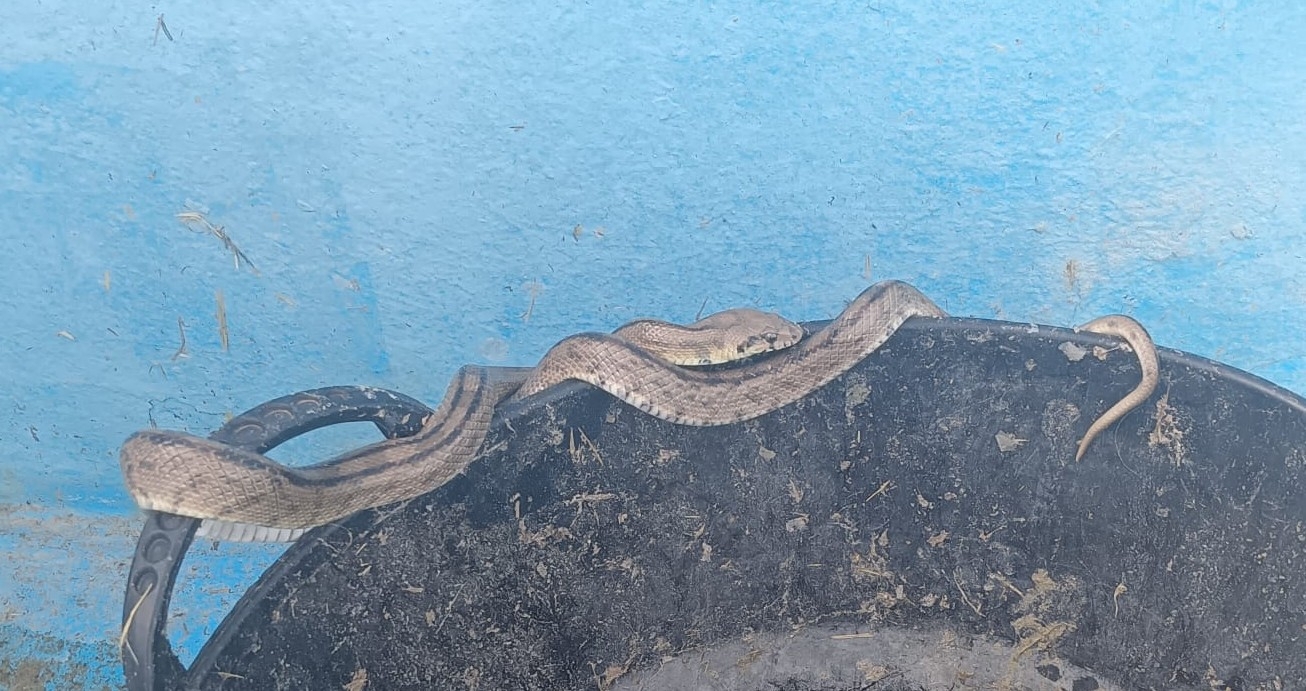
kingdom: Animalia
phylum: Chordata
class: Squamata
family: Colubridae
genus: Zamenis
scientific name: Zamenis scalaris
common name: Ladder snakes
